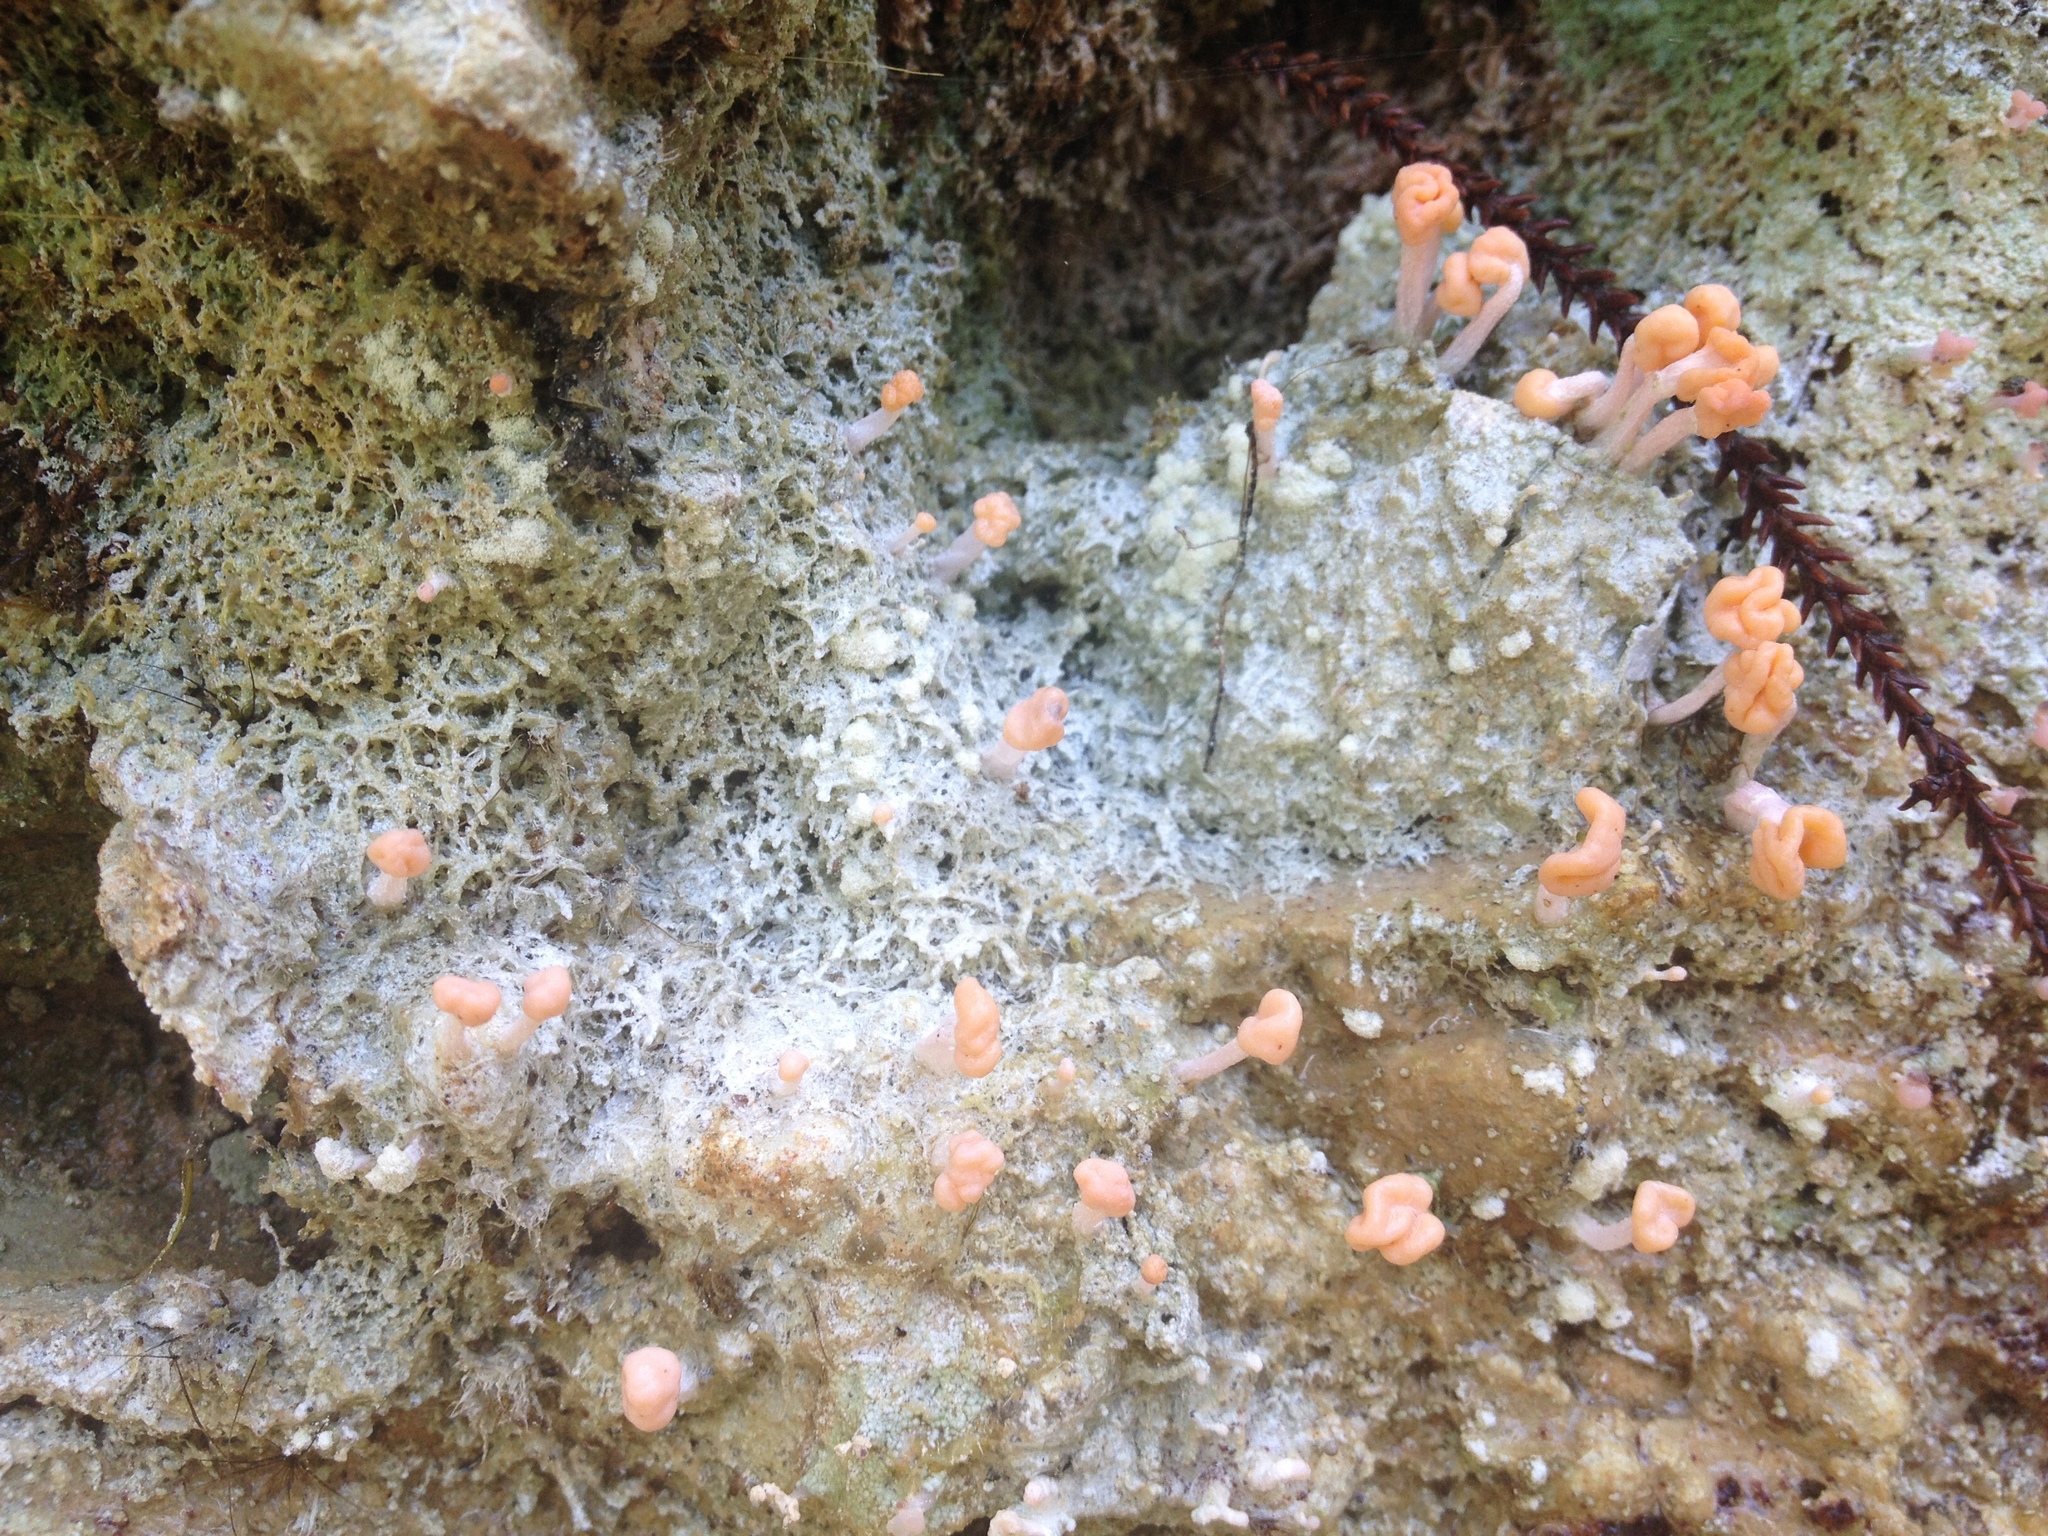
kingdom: Fungi
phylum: Ascomycota
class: Lecanoromycetes
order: Pertusariales
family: Icmadophilaceae
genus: Dibaeis
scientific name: Dibaeis arcuata
